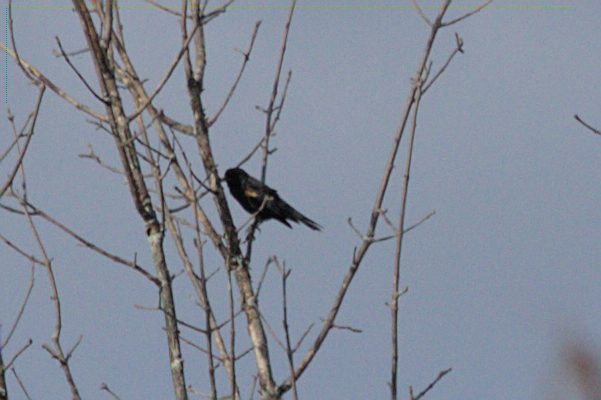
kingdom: Animalia
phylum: Chordata
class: Aves
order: Passeriformes
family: Icteridae
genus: Agelaius
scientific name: Agelaius phoeniceus
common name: Red-winged blackbird
